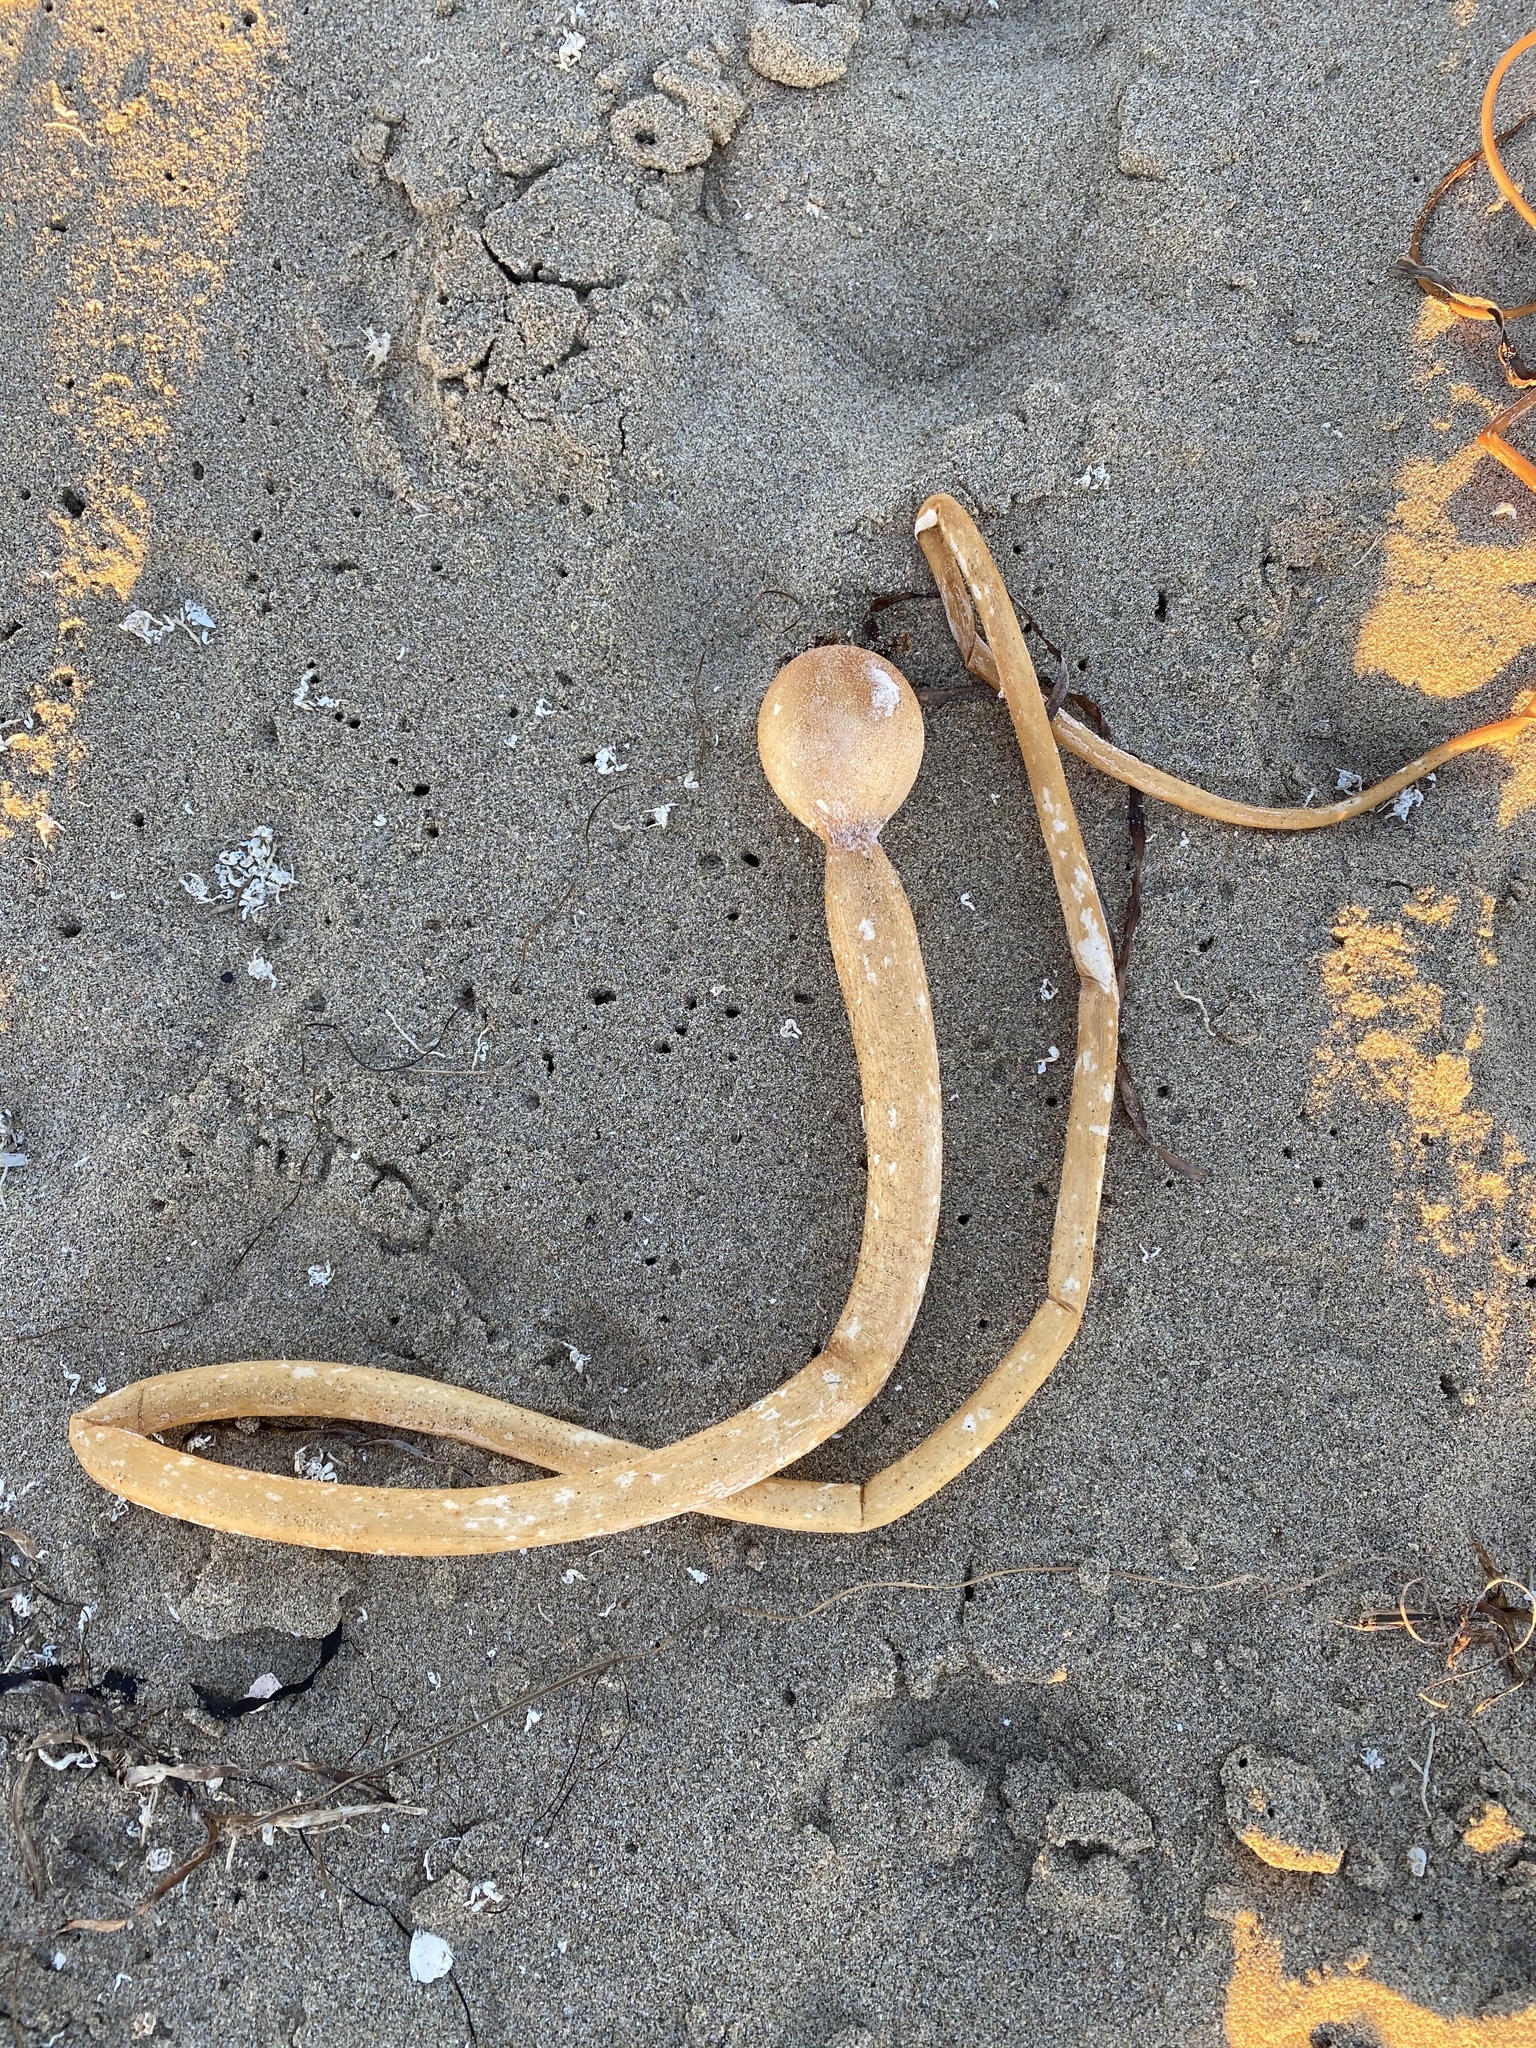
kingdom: Chromista
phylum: Ochrophyta
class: Phaeophyceae
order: Laminariales
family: Laminariaceae
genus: Nereocystis
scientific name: Nereocystis luetkeana
